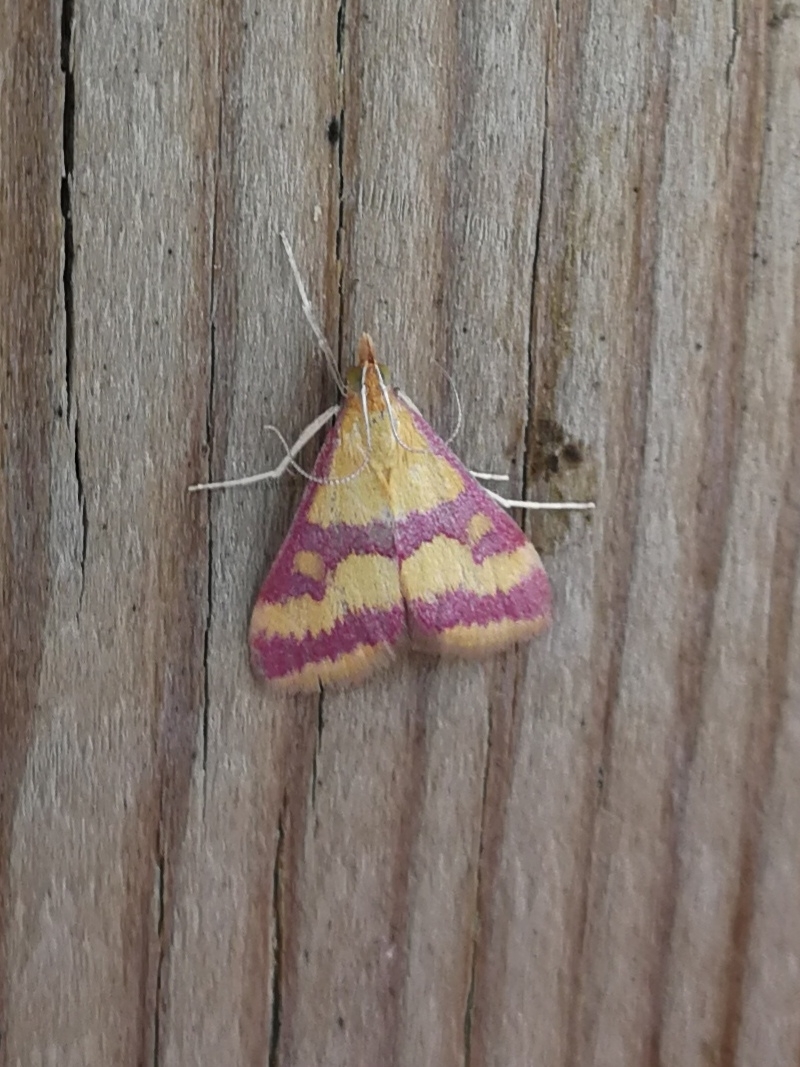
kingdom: Animalia
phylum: Arthropoda
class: Insecta
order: Lepidoptera
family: Crambidae
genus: Pyrausta
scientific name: Pyrausta sanguinalis
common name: Scarce crimson and gold
